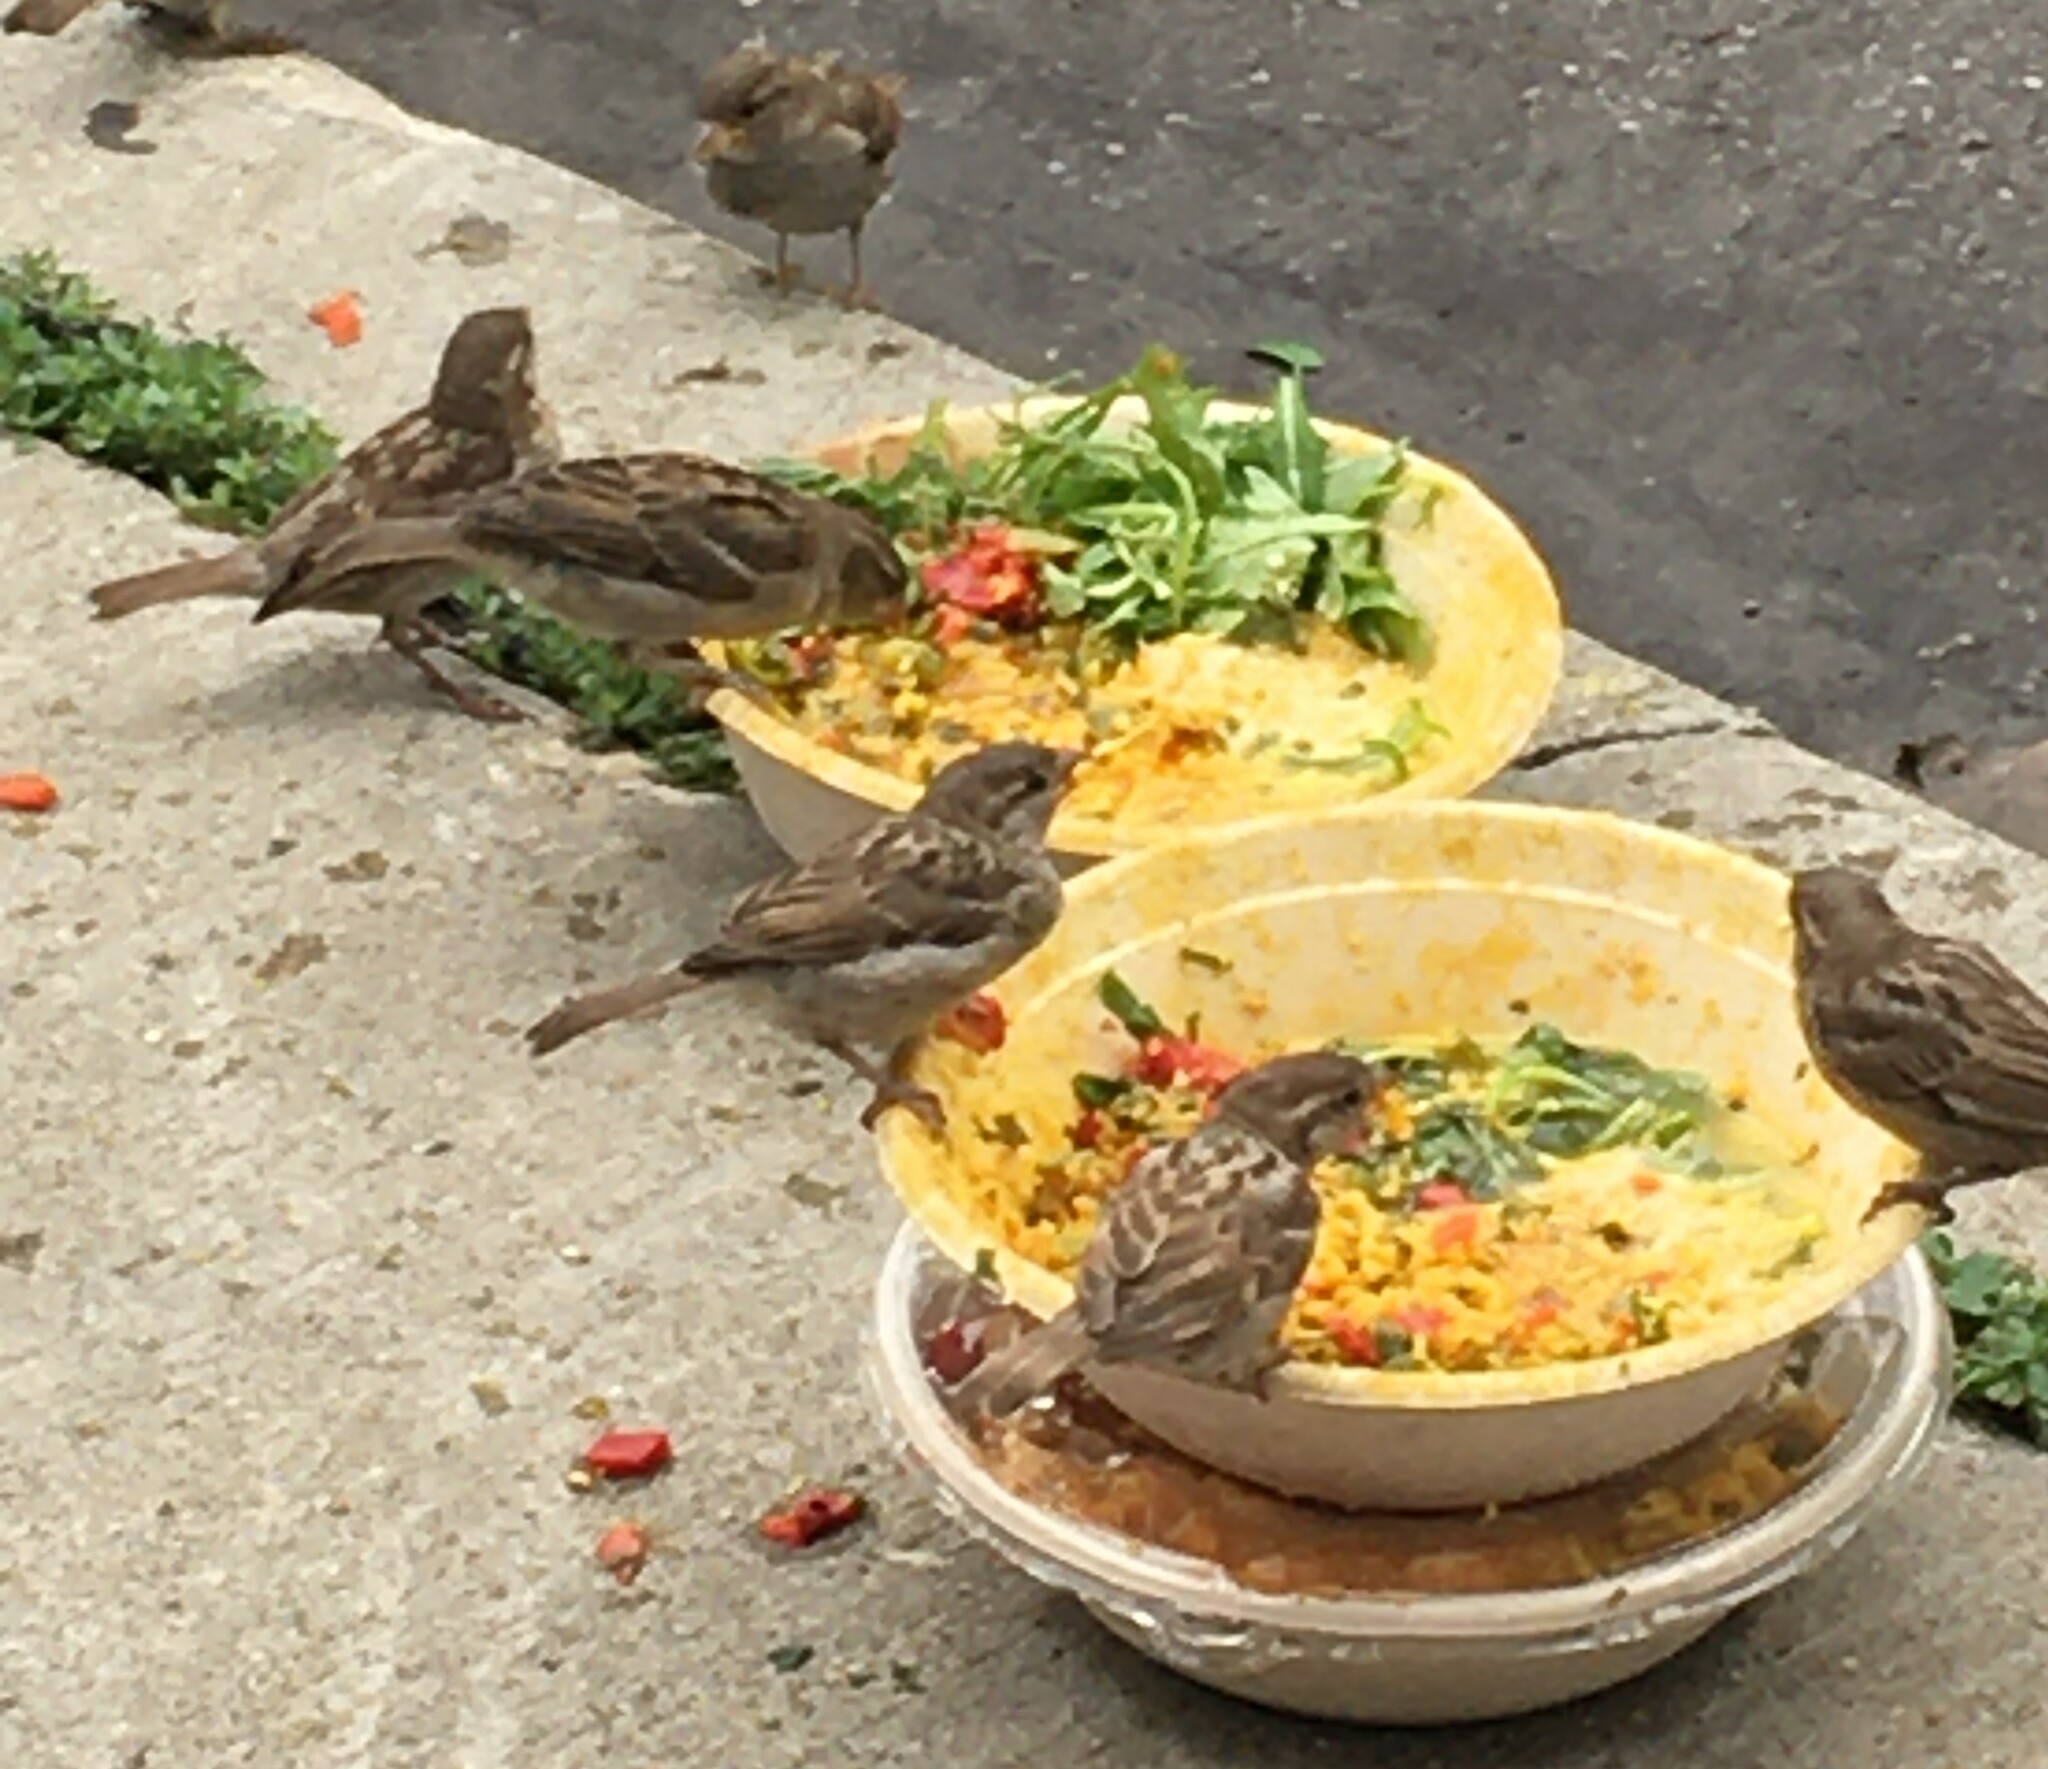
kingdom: Animalia
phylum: Chordata
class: Aves
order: Passeriformes
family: Passeridae
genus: Passer
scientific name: Passer domesticus
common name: House sparrow
